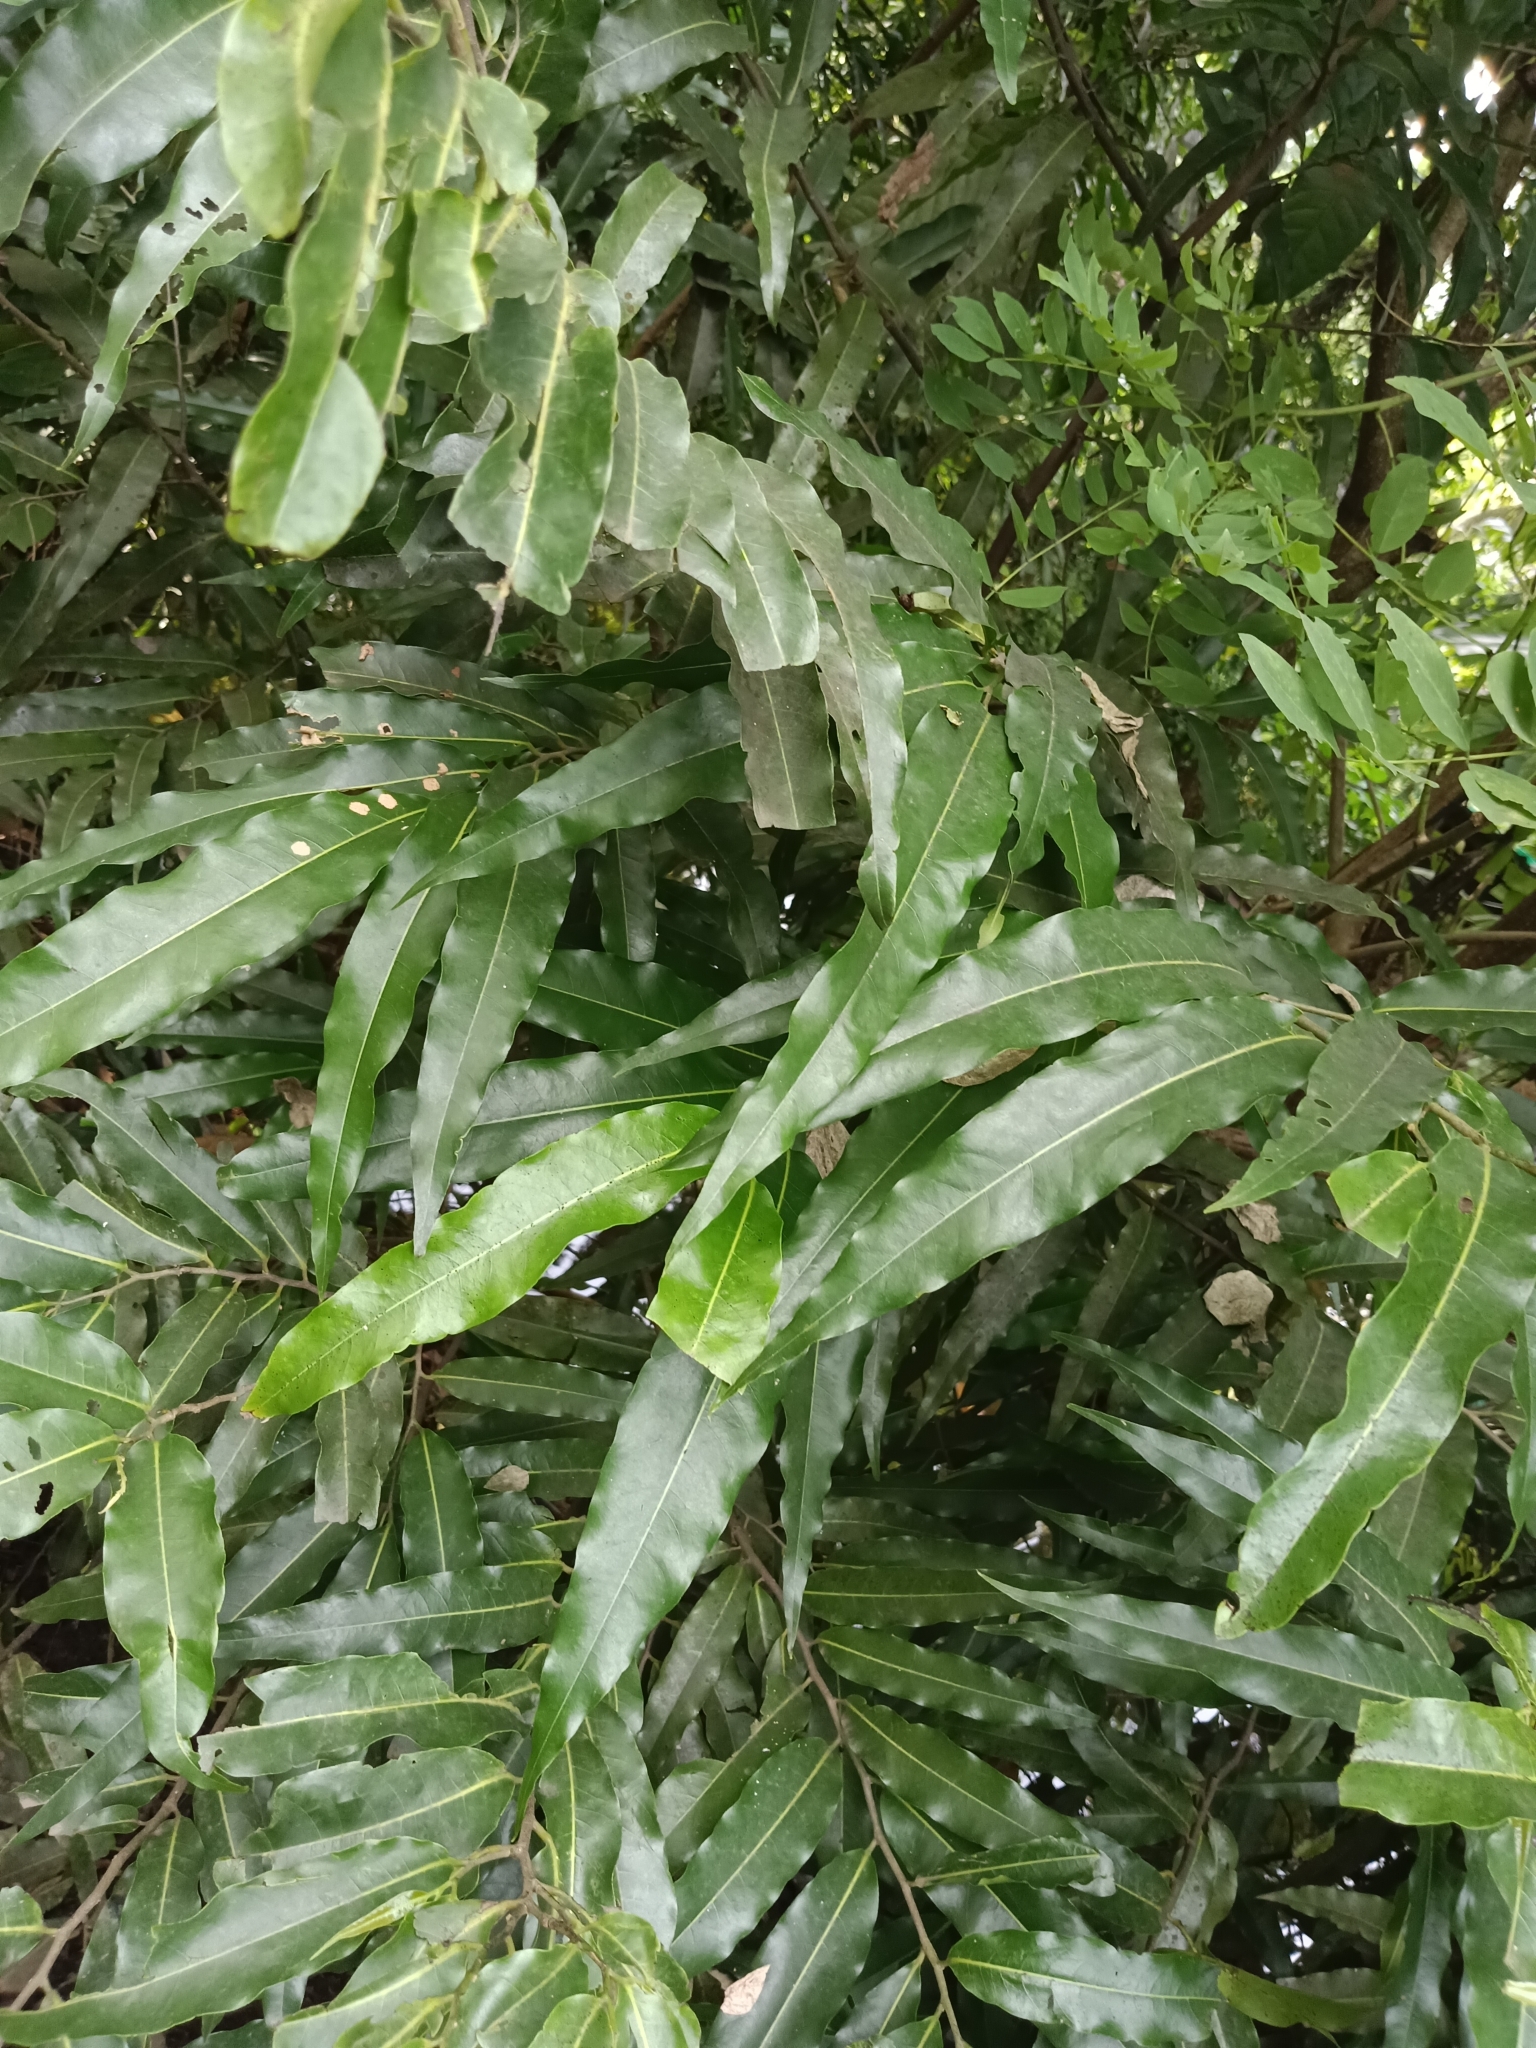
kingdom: Plantae
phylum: Tracheophyta
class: Magnoliopsida
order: Magnoliales
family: Annonaceae
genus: Polyalthia
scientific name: Polyalthia longifolia
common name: Cemetery-tree
